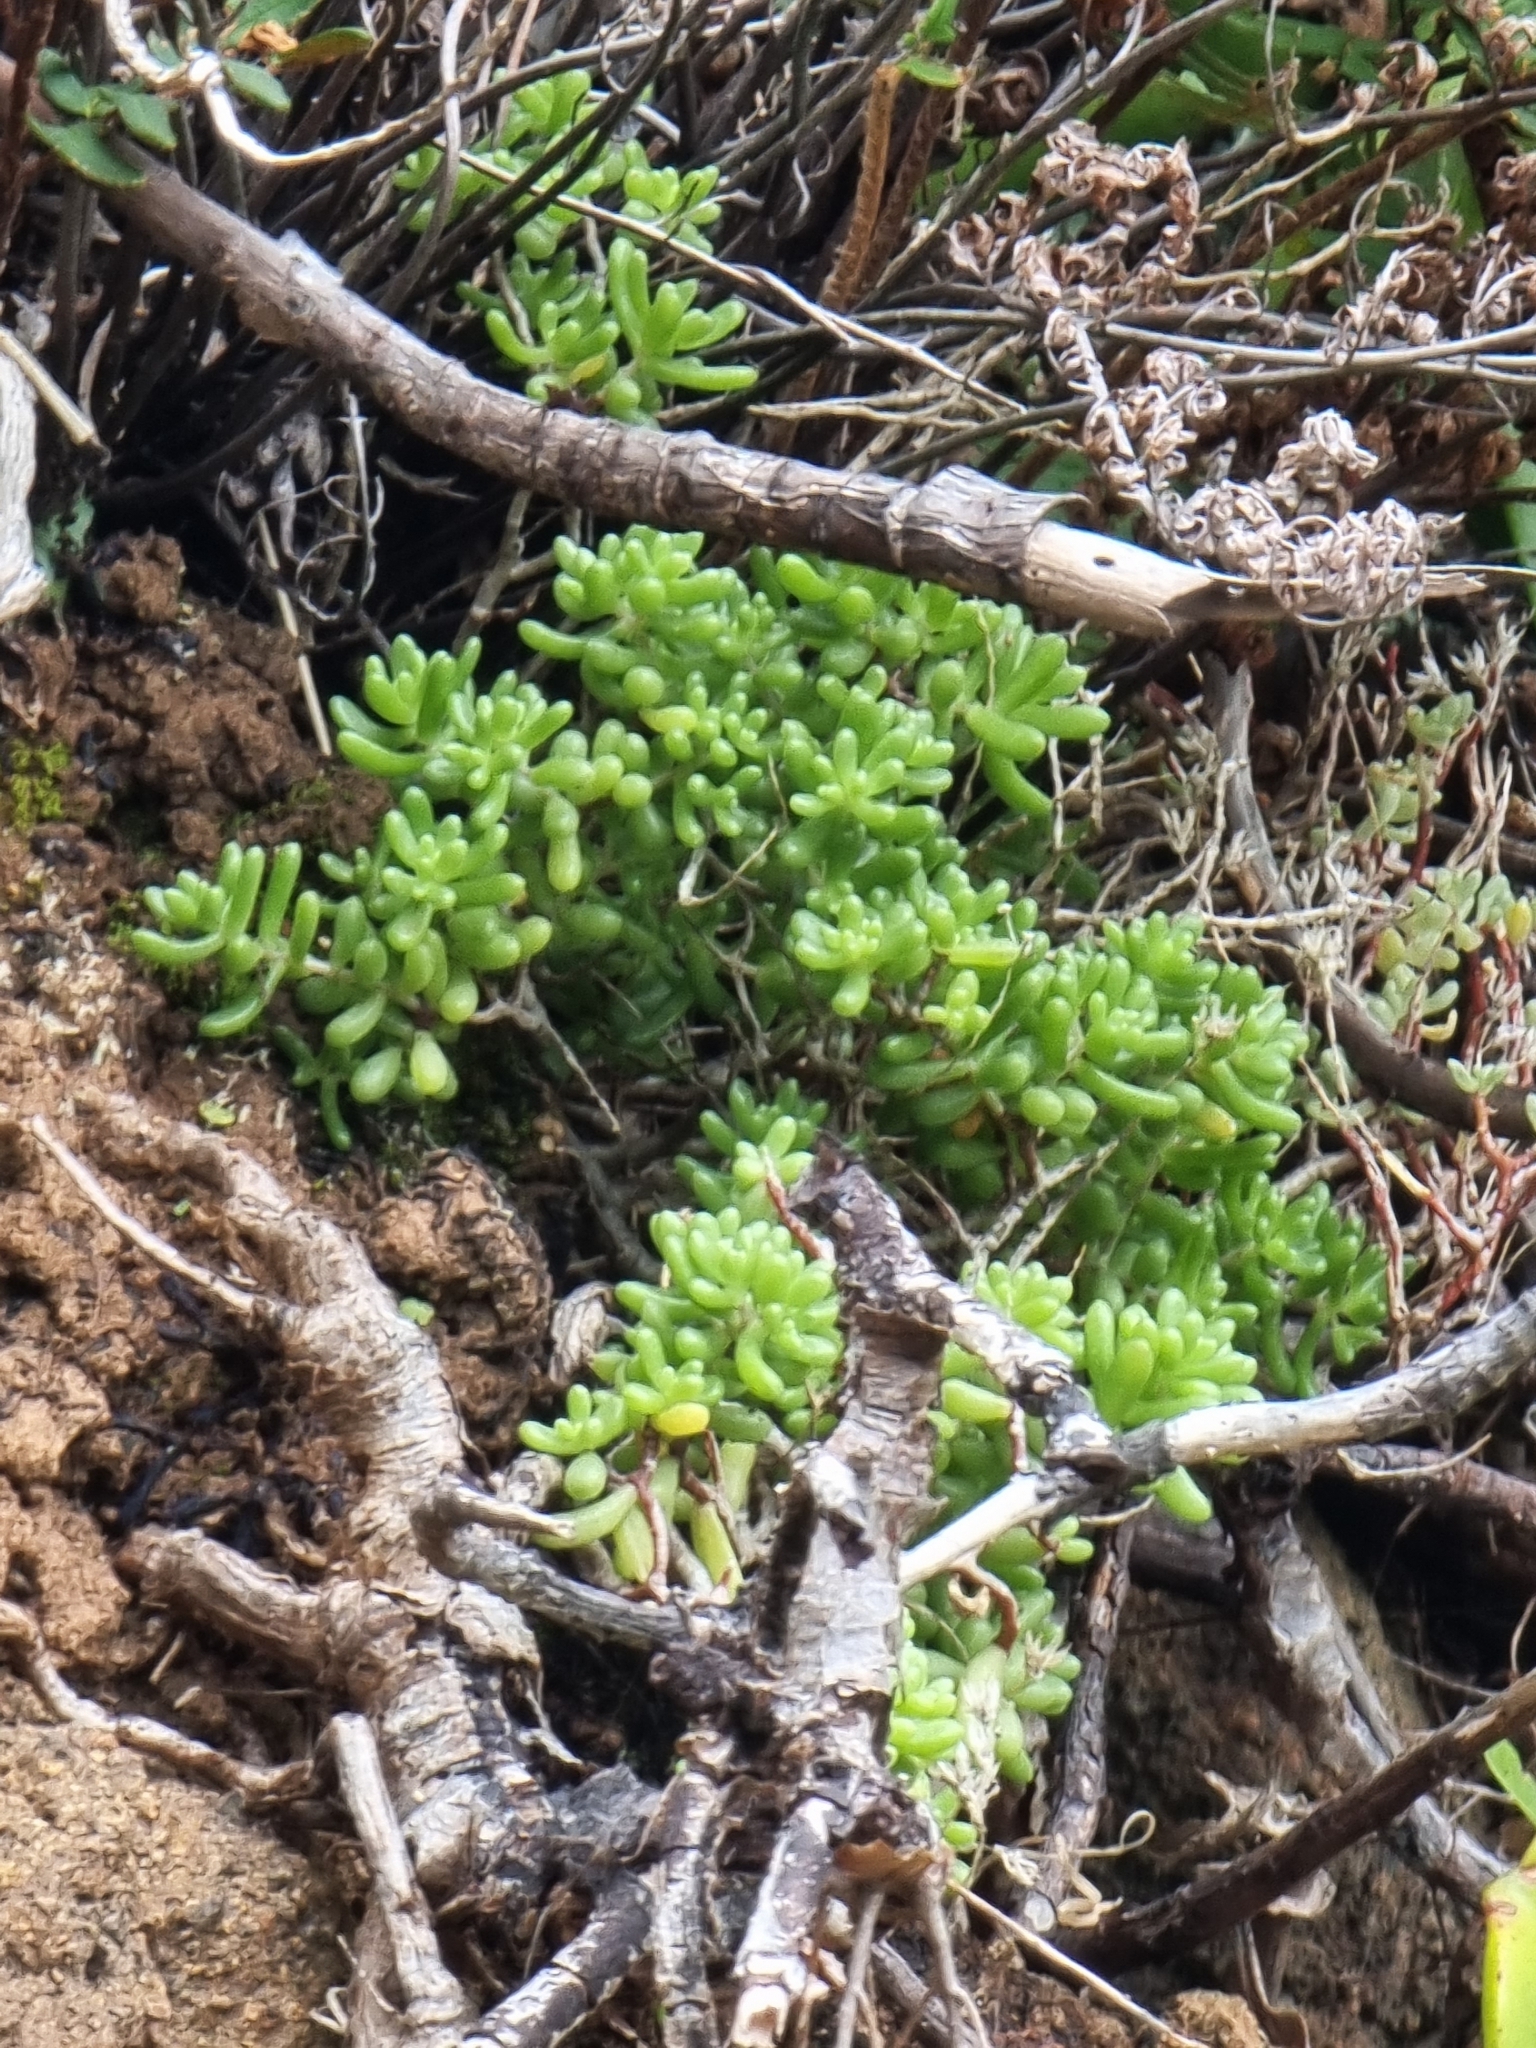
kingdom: Plantae
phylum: Tracheophyta
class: Magnoliopsida
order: Saxifragales
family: Crassulaceae
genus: Sedum
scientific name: Sedum nudum
